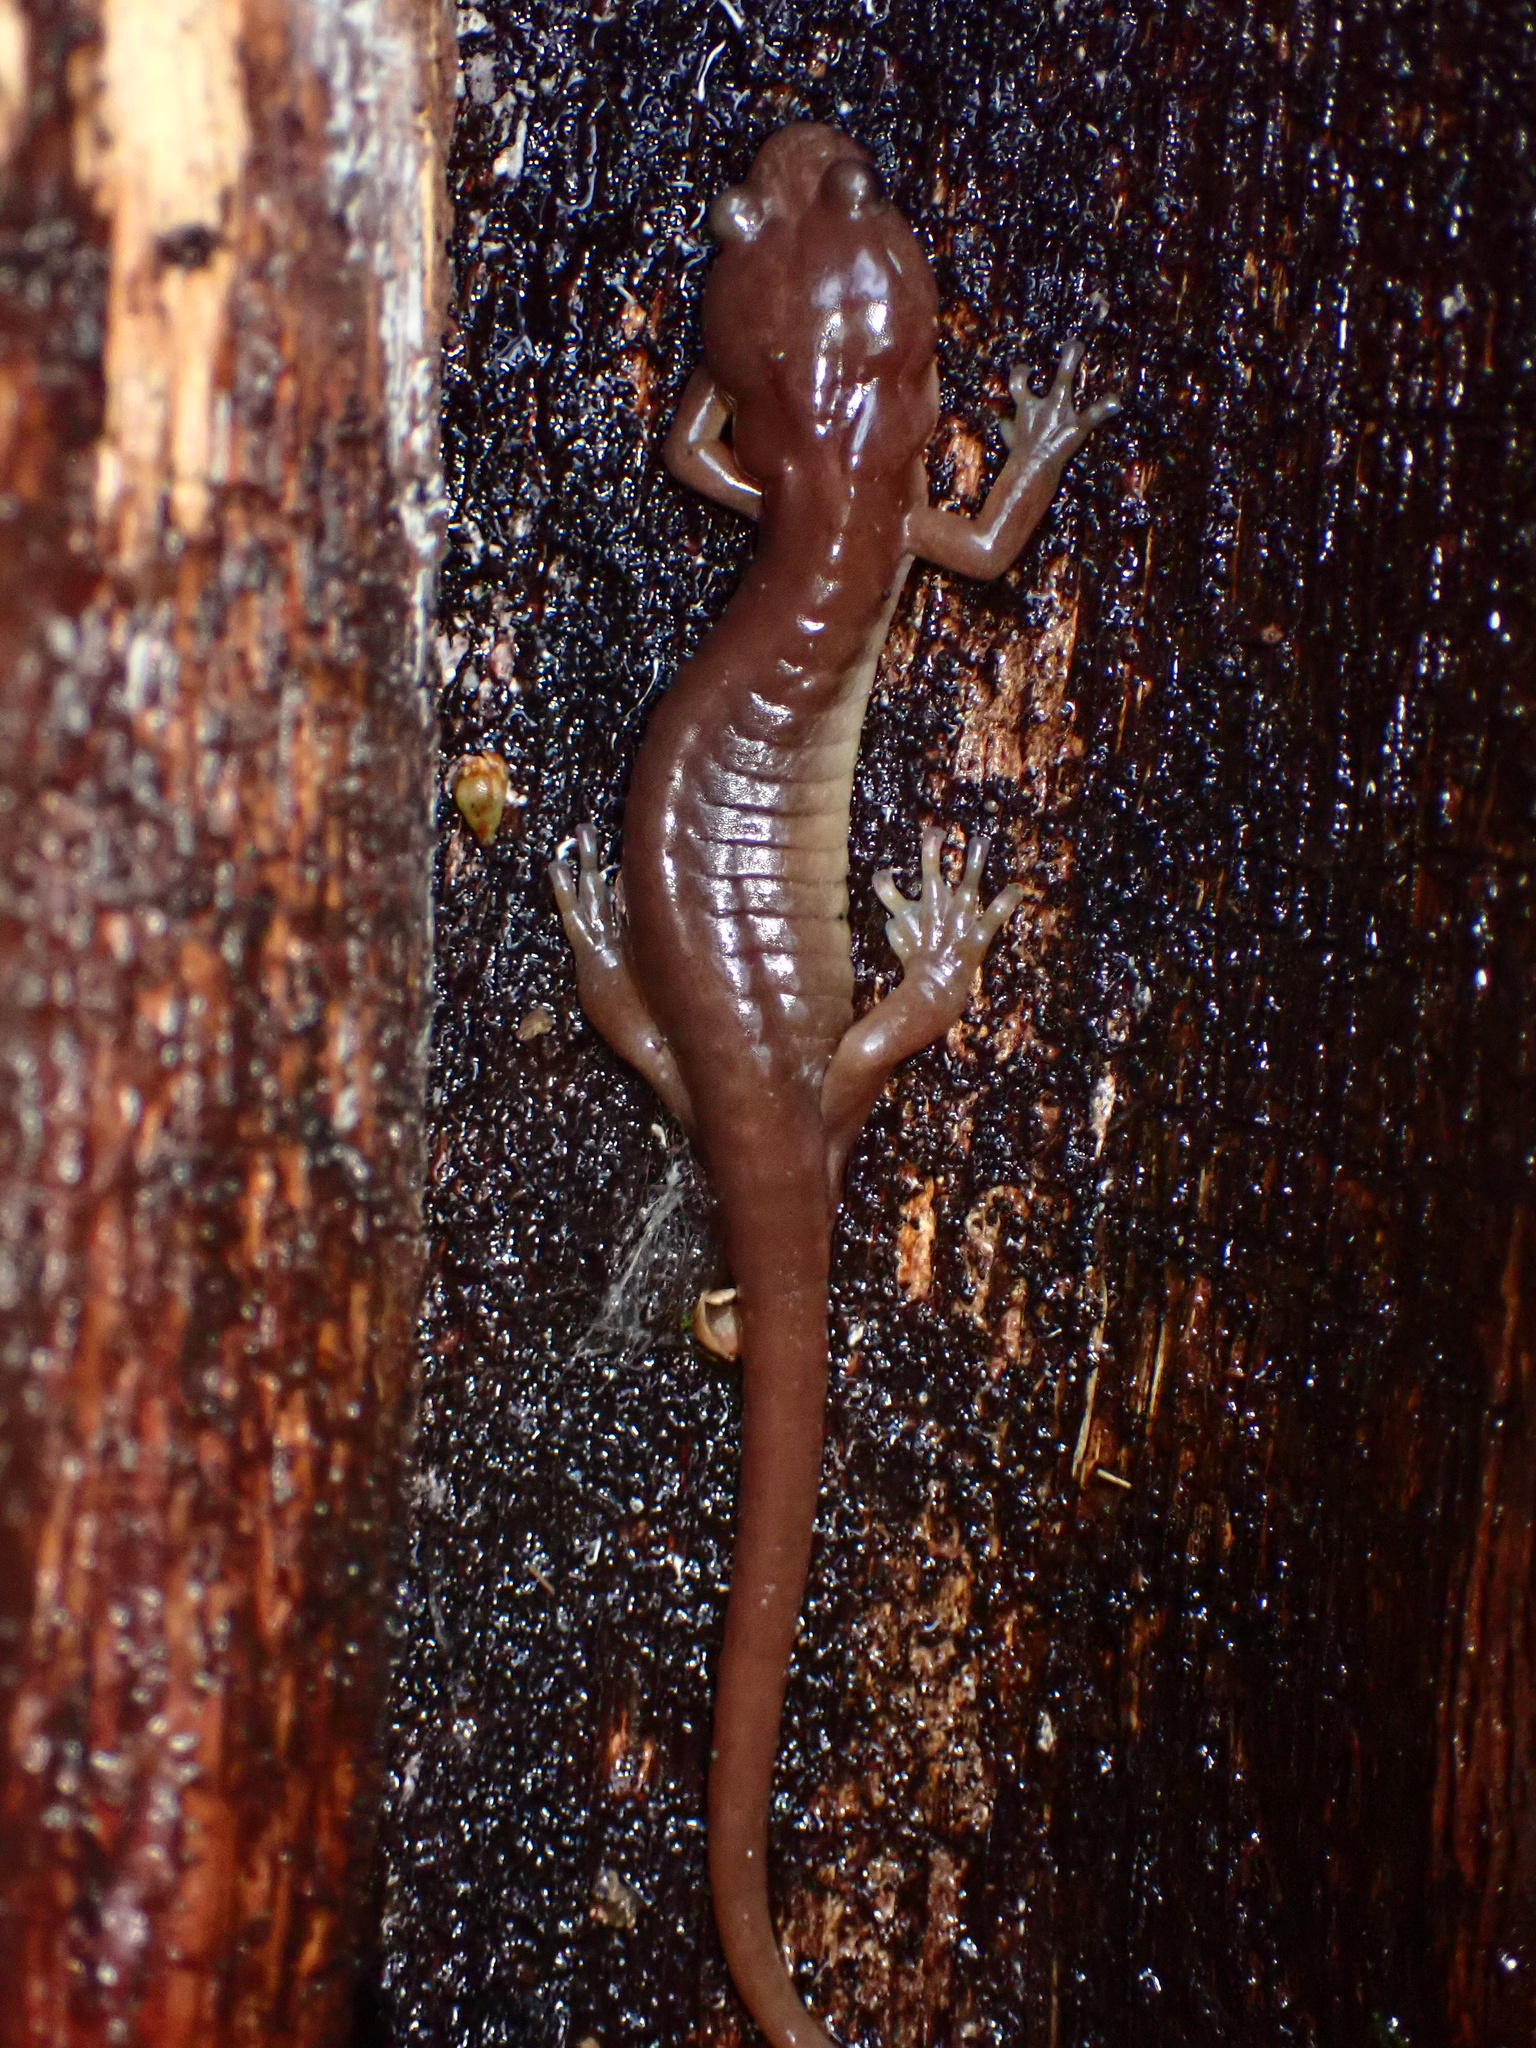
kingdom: Animalia
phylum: Chordata
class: Amphibia
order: Caudata
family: Plethodontidae
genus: Aneides
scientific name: Aneides lugubris
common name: Arboreal salamander
